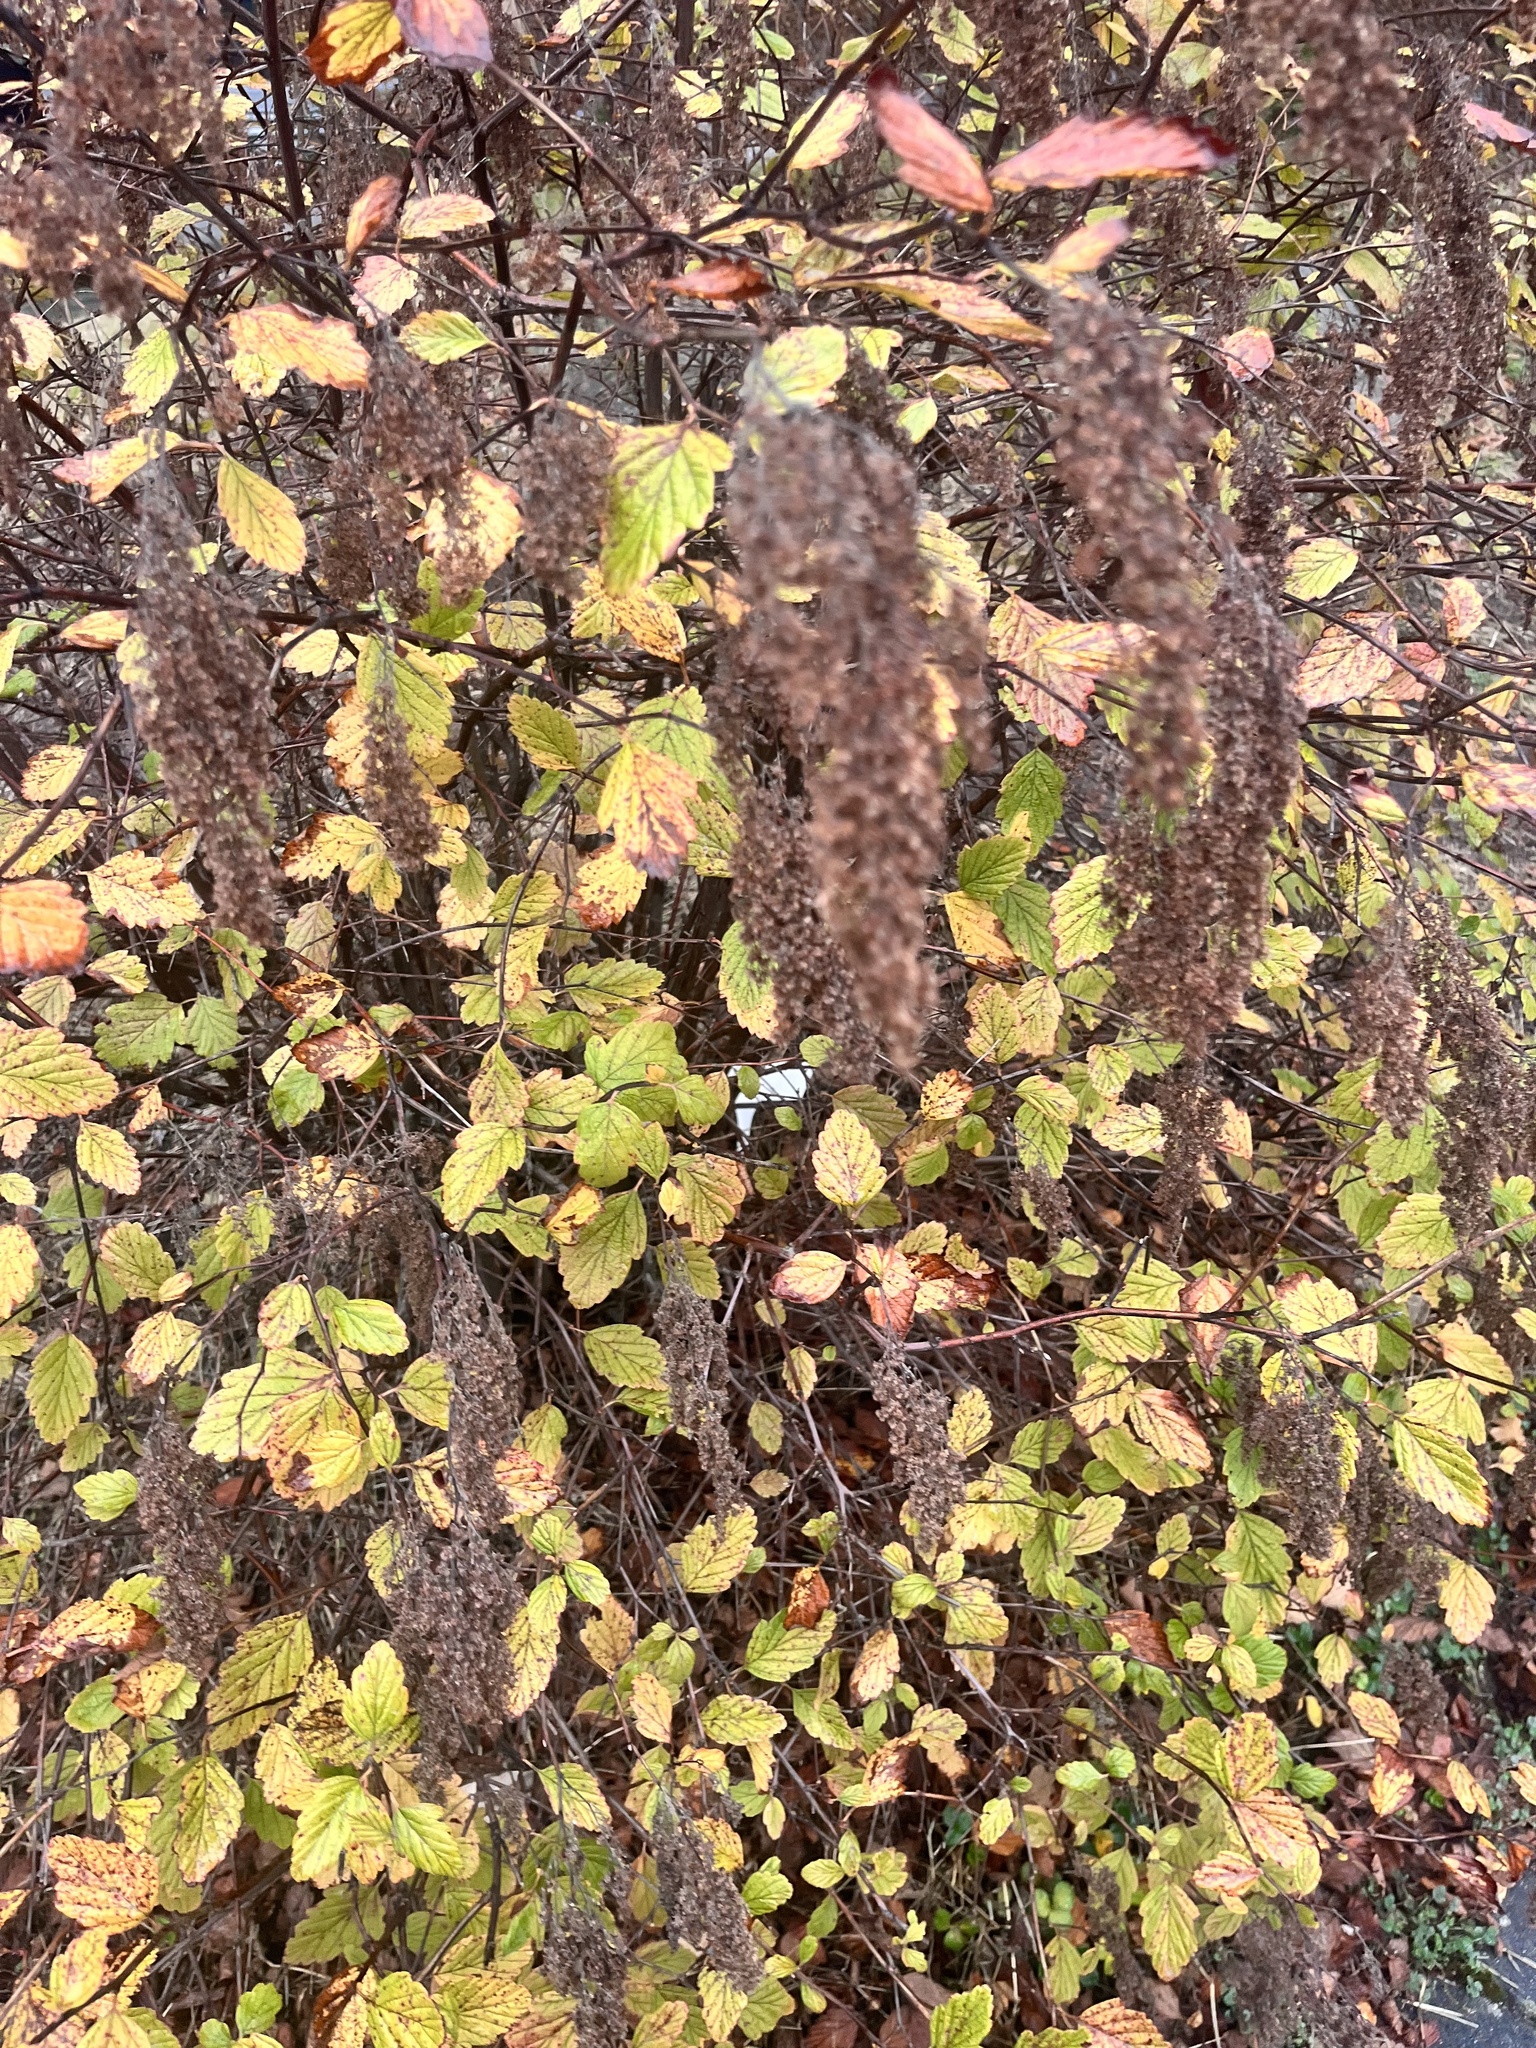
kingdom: Plantae
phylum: Tracheophyta
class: Magnoliopsida
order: Rosales
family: Rosaceae
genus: Holodiscus
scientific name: Holodiscus discolor
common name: Oceanspray
